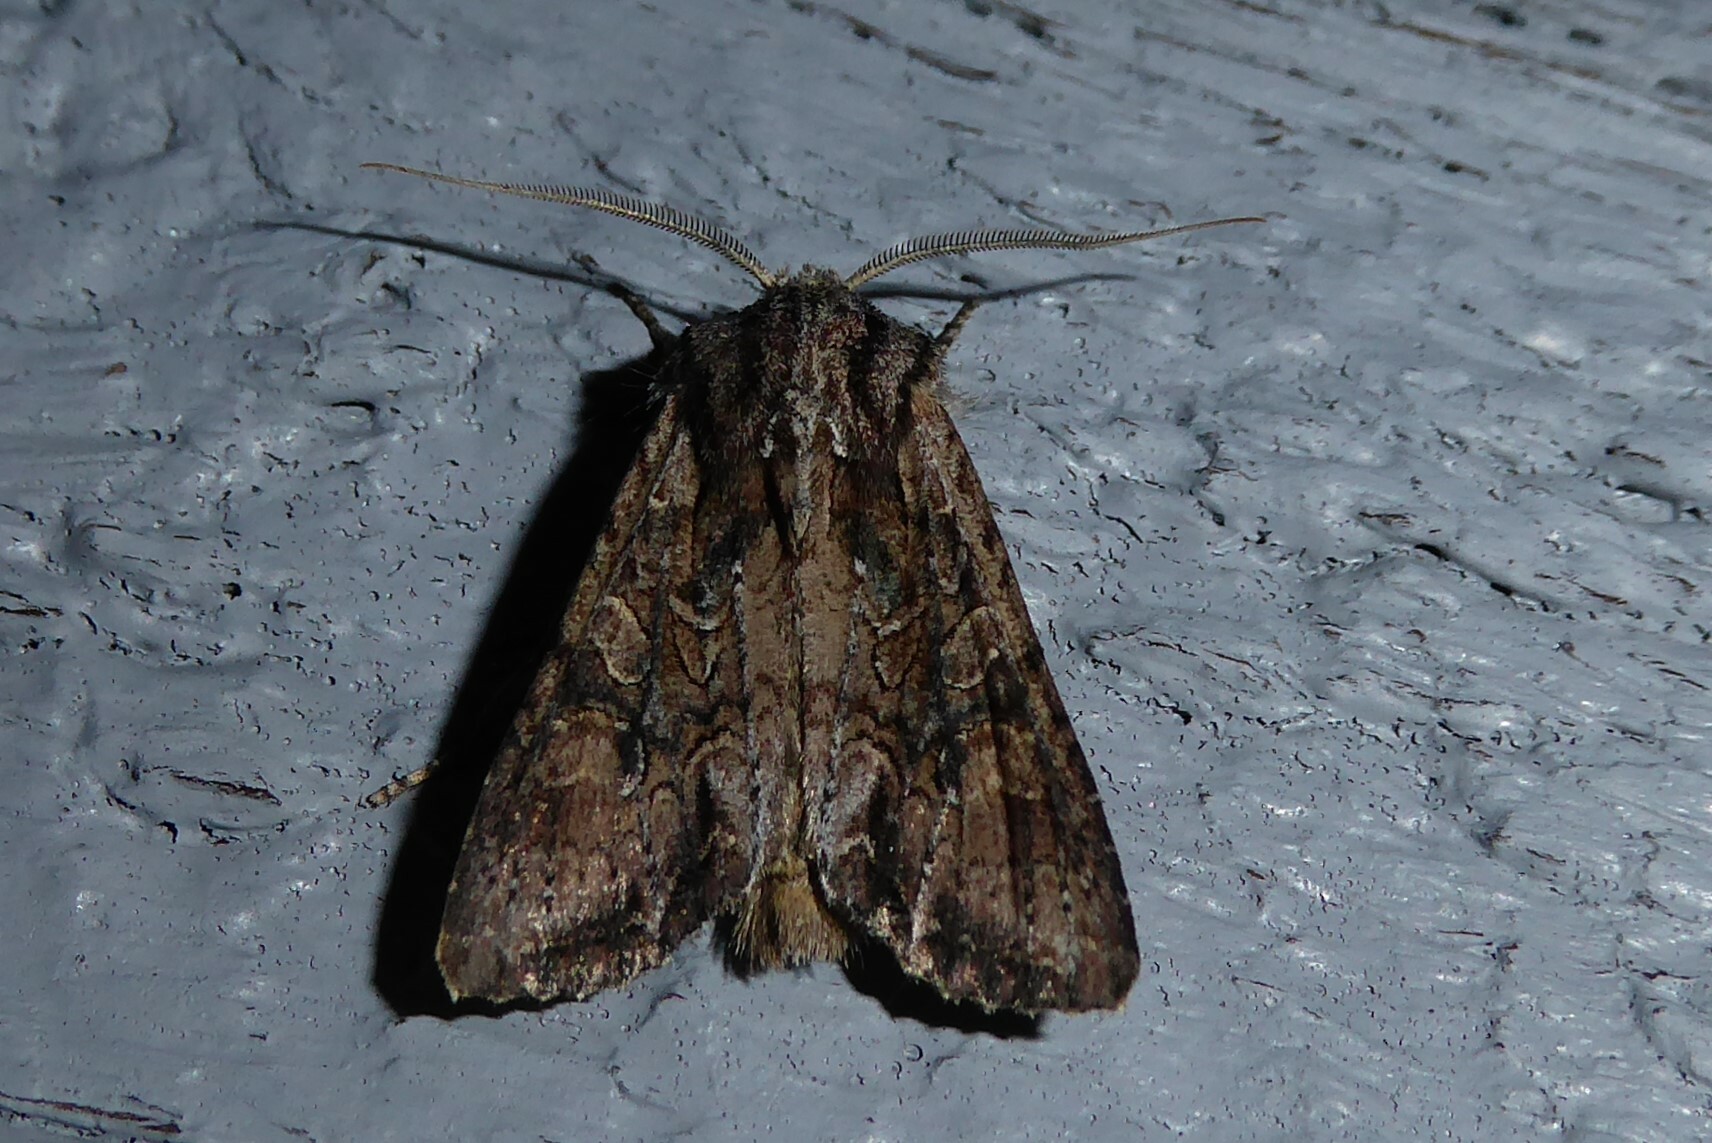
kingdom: Animalia
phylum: Arthropoda
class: Insecta
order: Lepidoptera
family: Noctuidae
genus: Ichneutica
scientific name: Ichneutica mutans
